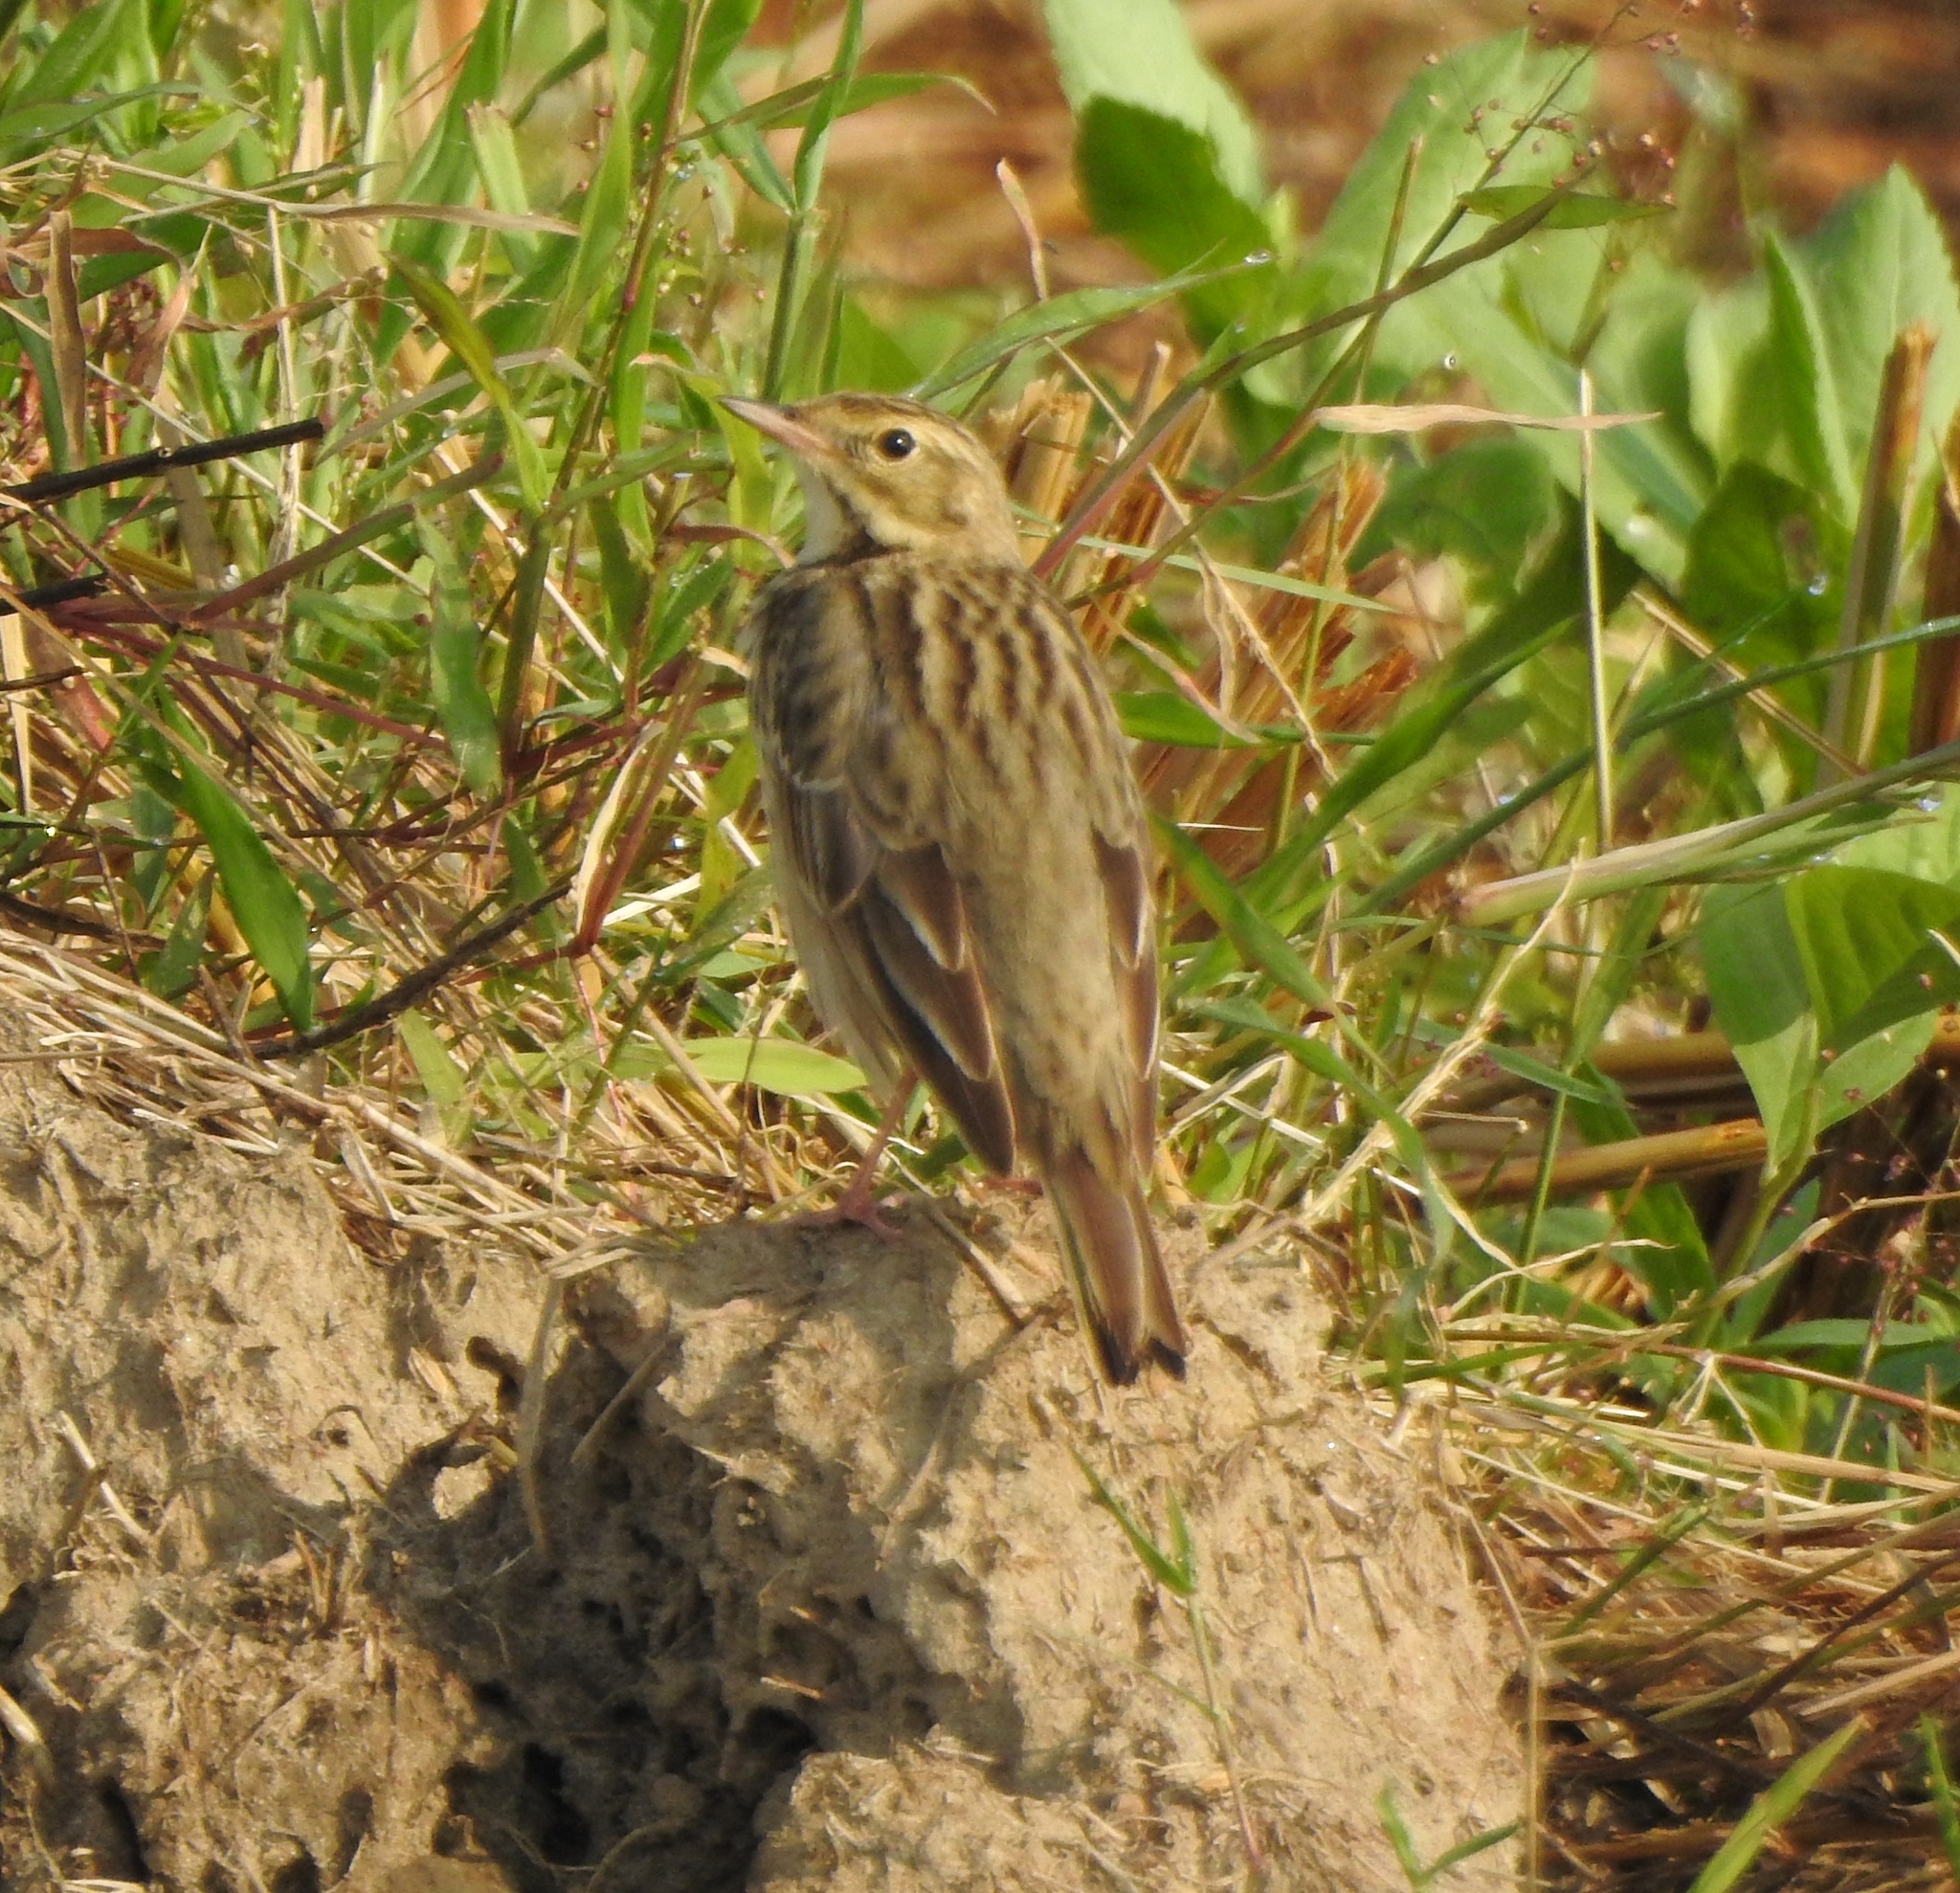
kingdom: Animalia
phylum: Chordata
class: Aves
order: Passeriformes
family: Motacillidae
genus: Anthus
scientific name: Anthus trivialis
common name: Tree pipit
